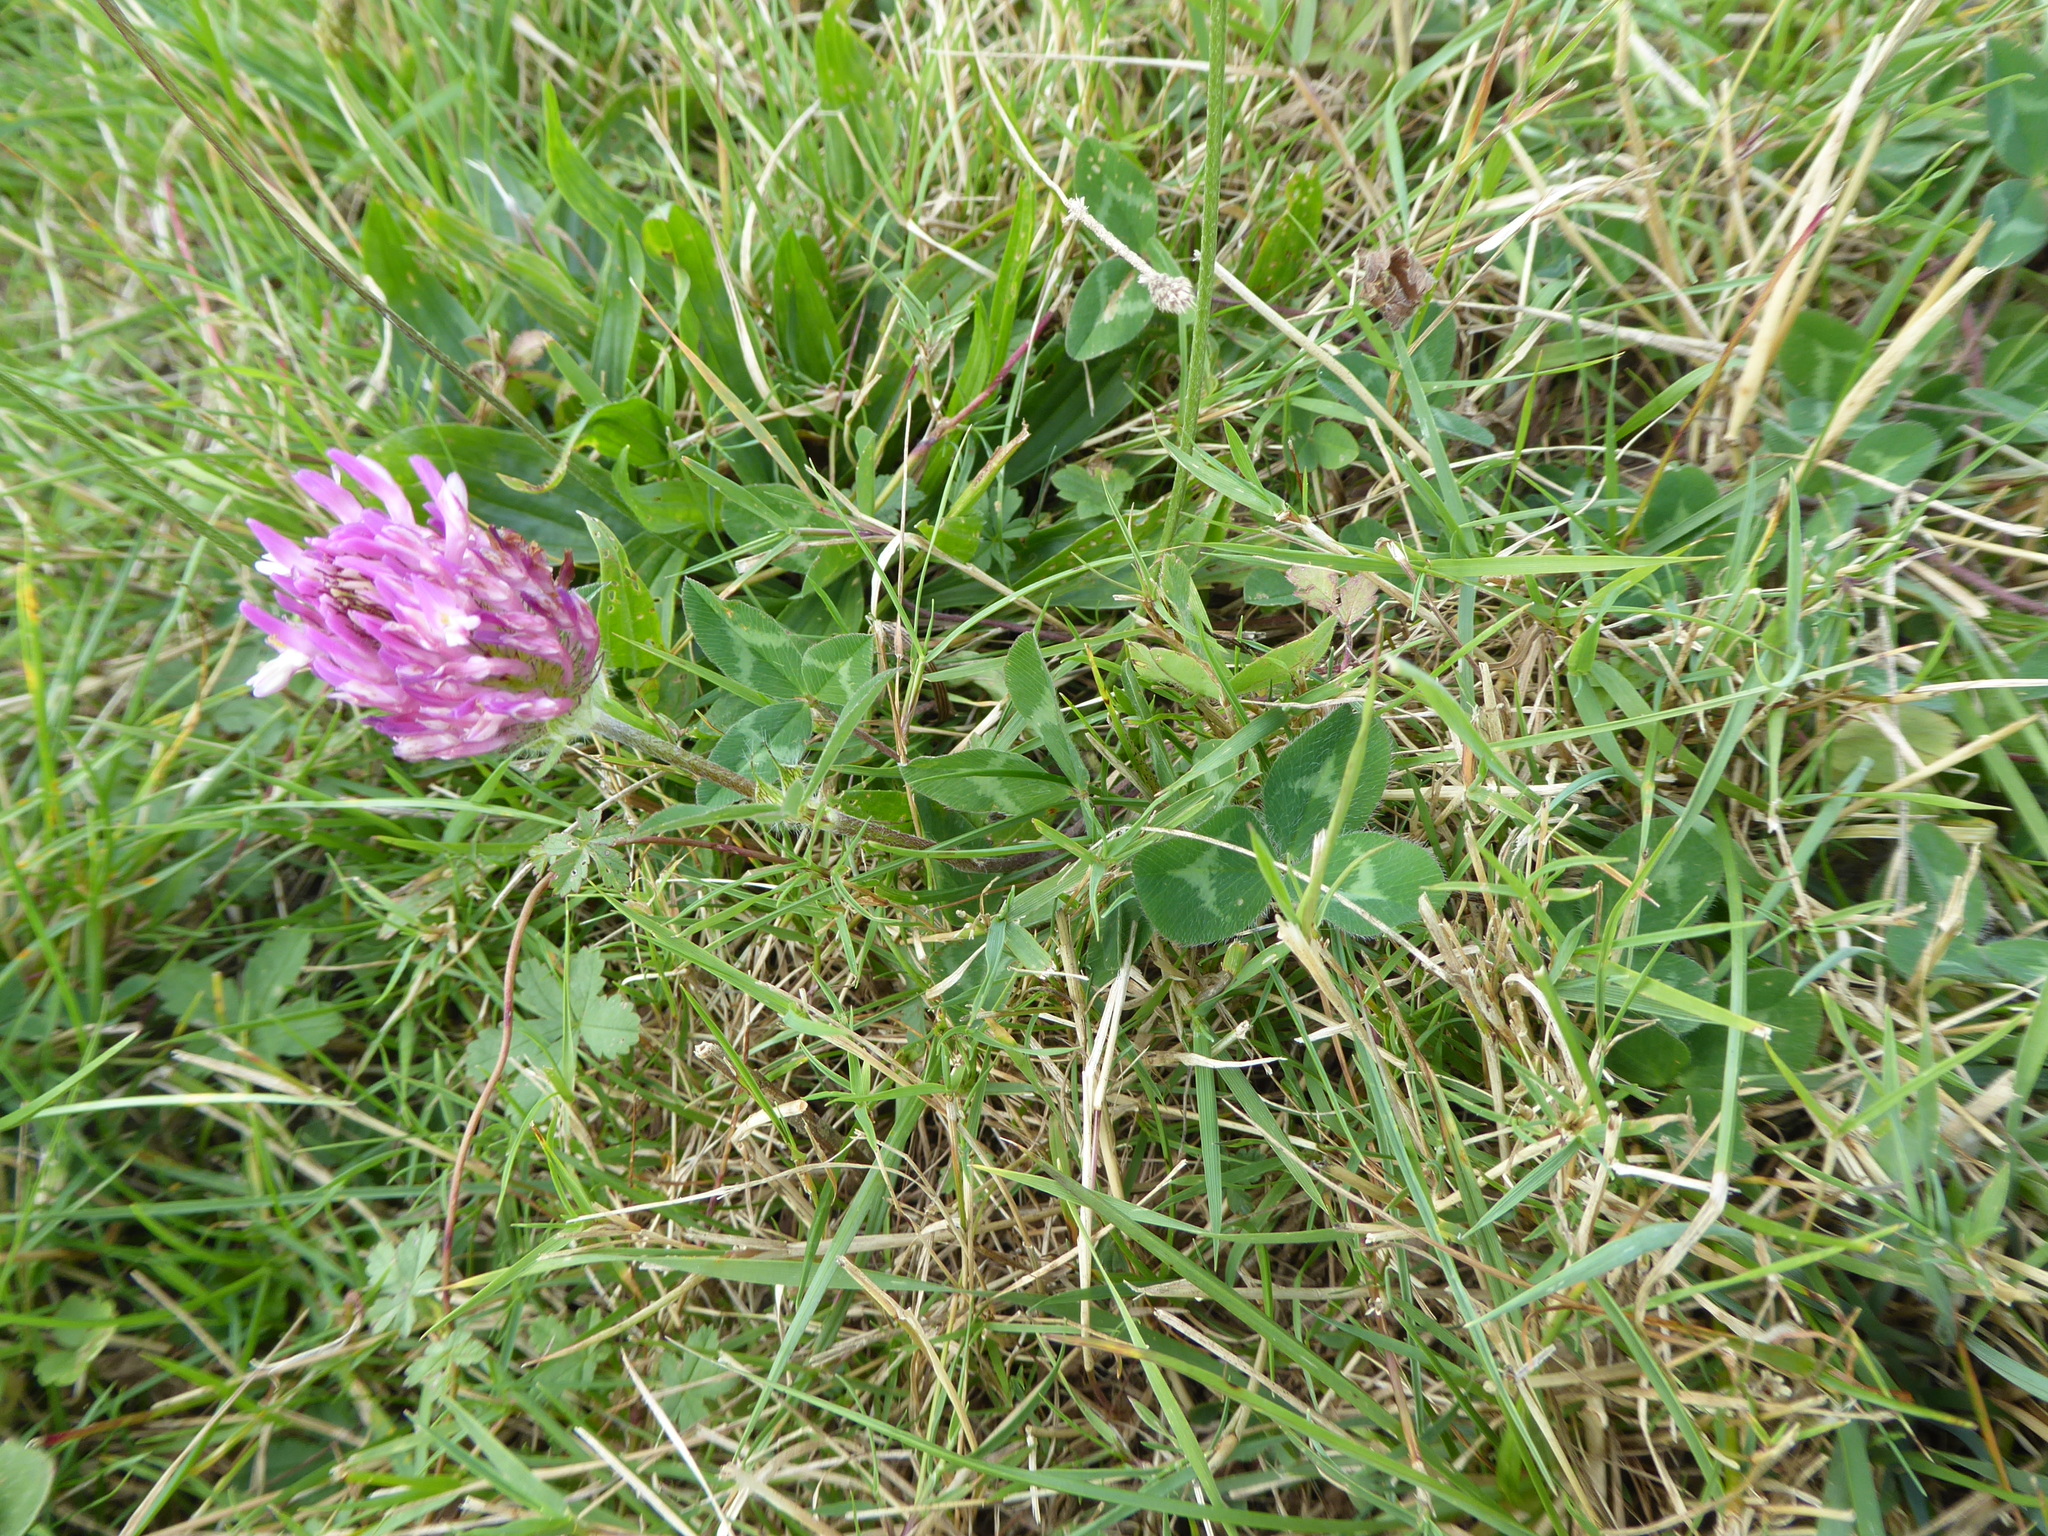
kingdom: Plantae
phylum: Tracheophyta
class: Magnoliopsida
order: Fabales
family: Fabaceae
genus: Trifolium
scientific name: Trifolium pratense
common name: Red clover
